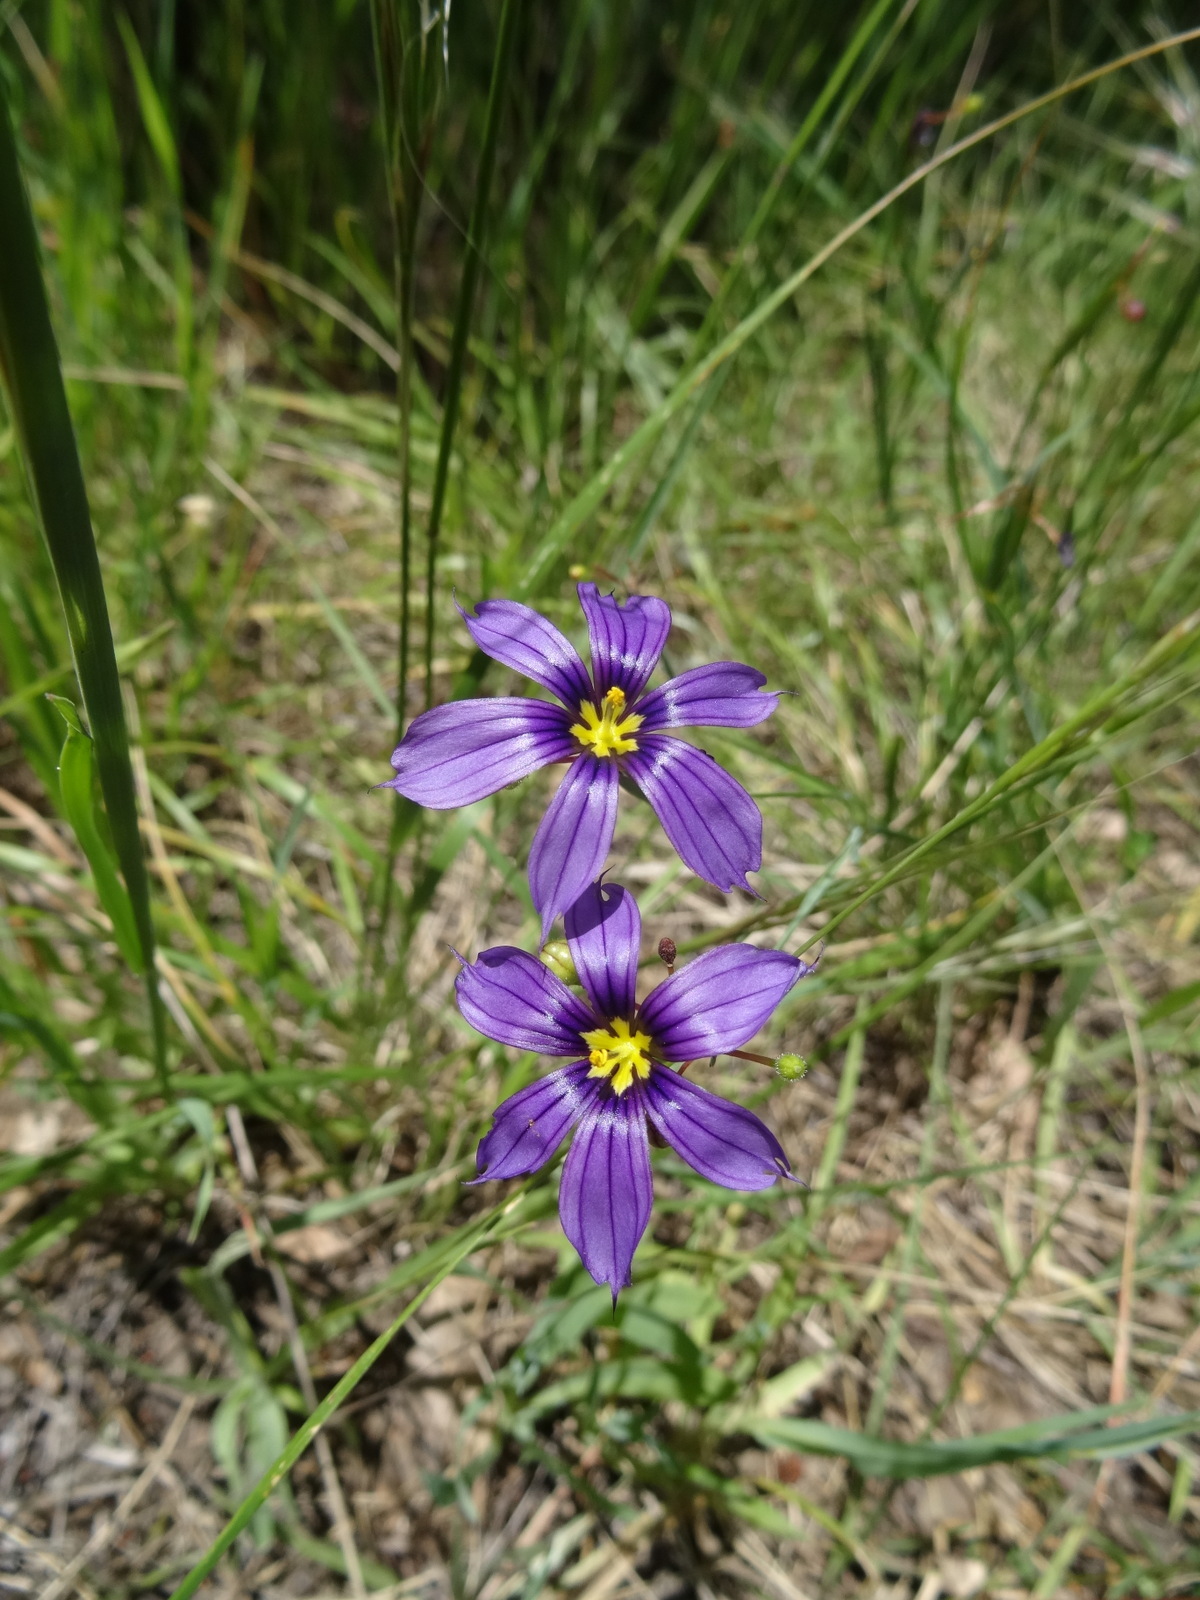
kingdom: Plantae
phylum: Tracheophyta
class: Liliopsida
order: Asparagales
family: Iridaceae
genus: Sisyrinchium
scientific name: Sisyrinchium bellum
